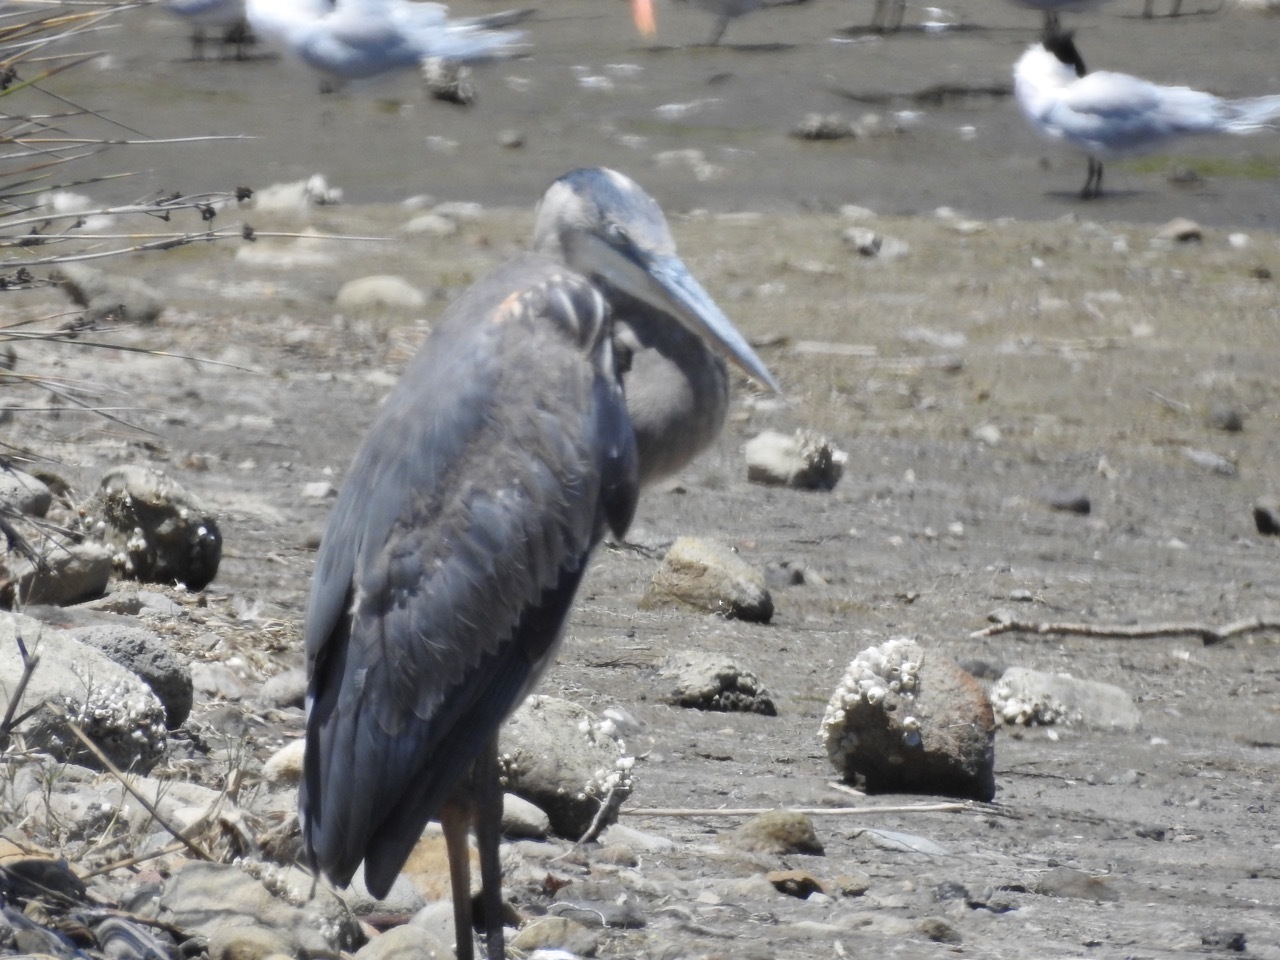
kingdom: Animalia
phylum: Chordata
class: Aves
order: Pelecaniformes
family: Ardeidae
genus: Ardea
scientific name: Ardea herodias
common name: Great blue heron
